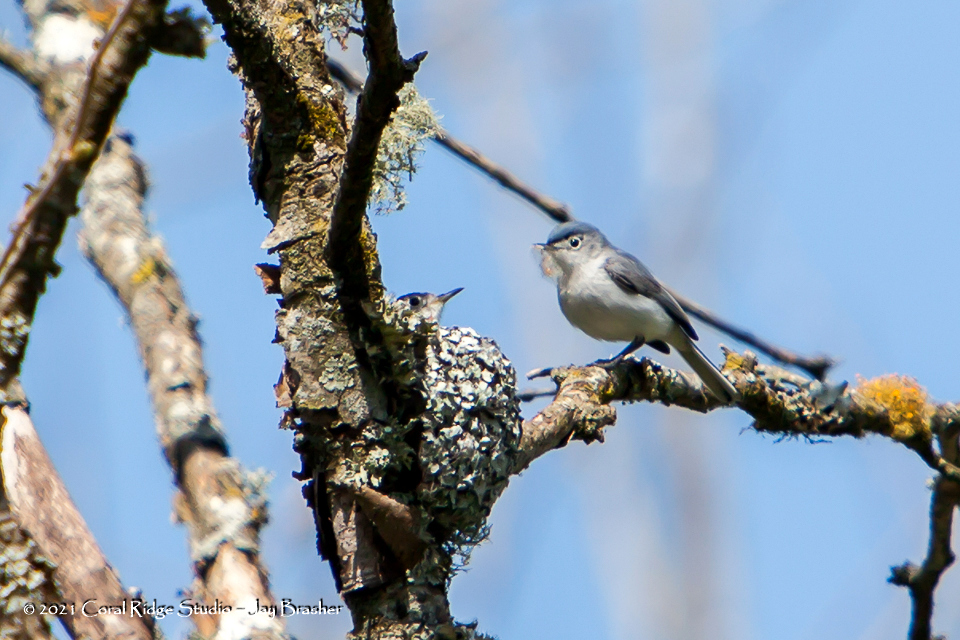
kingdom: Animalia
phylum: Chordata
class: Aves
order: Passeriformes
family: Polioptilidae
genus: Polioptila
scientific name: Polioptila caerulea
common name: Blue-gray gnatcatcher
